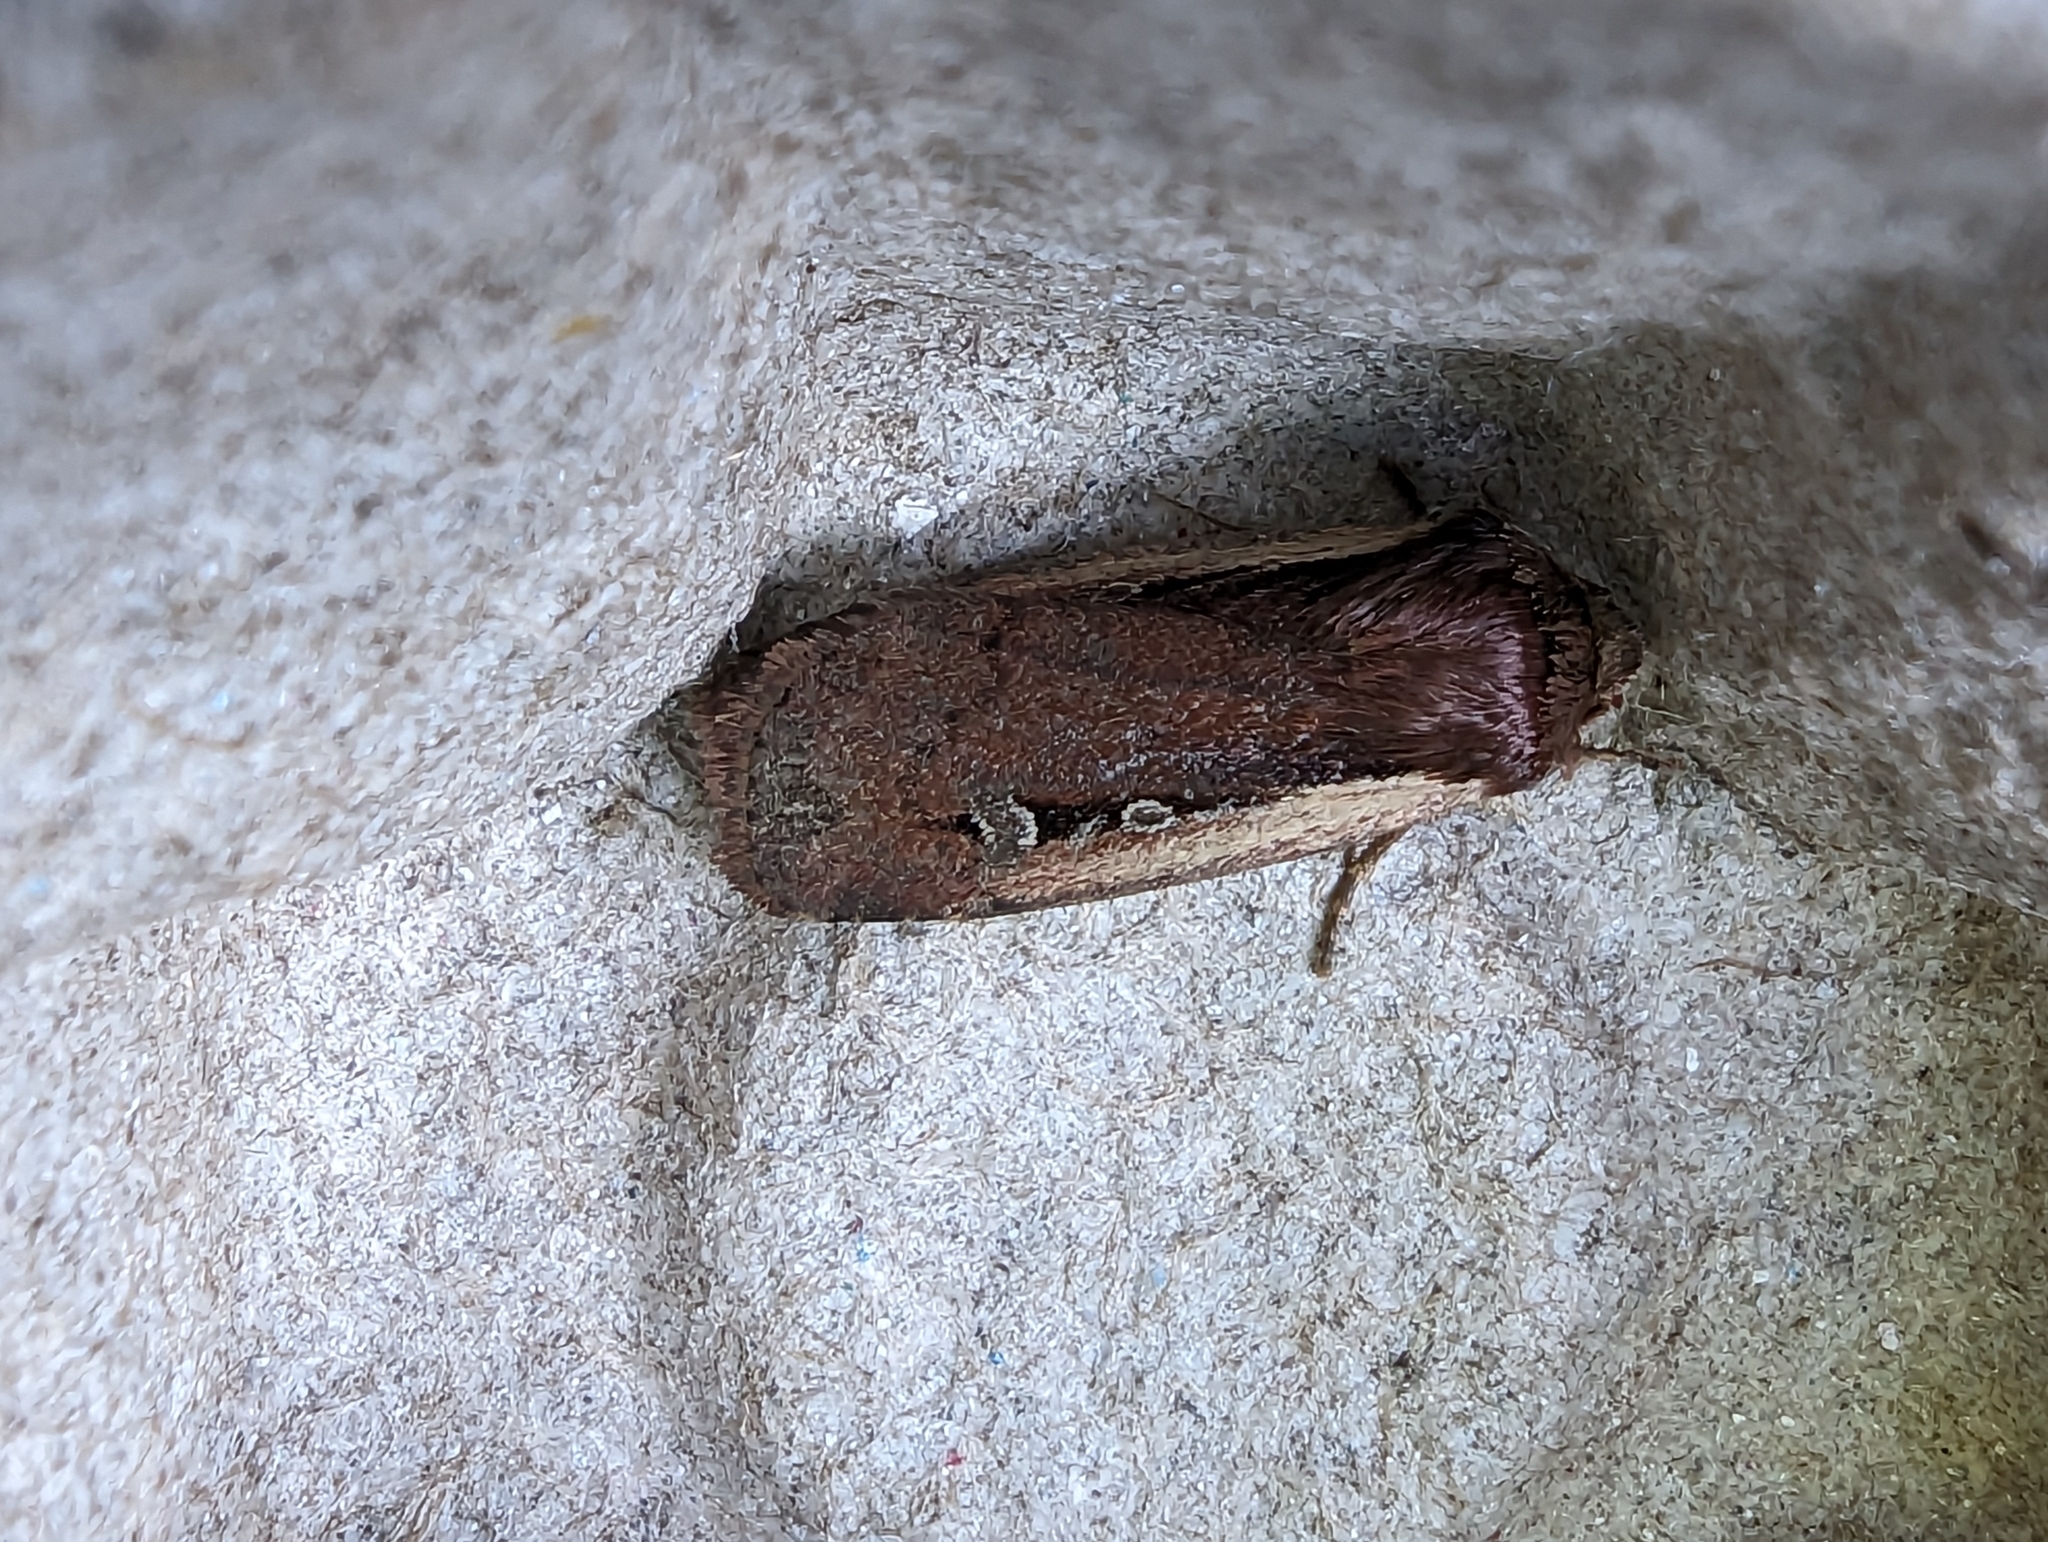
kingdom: Animalia
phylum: Arthropoda
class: Insecta
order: Lepidoptera
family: Noctuidae
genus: Ochropleura
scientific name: Ochropleura plecta
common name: Flame shoulder
